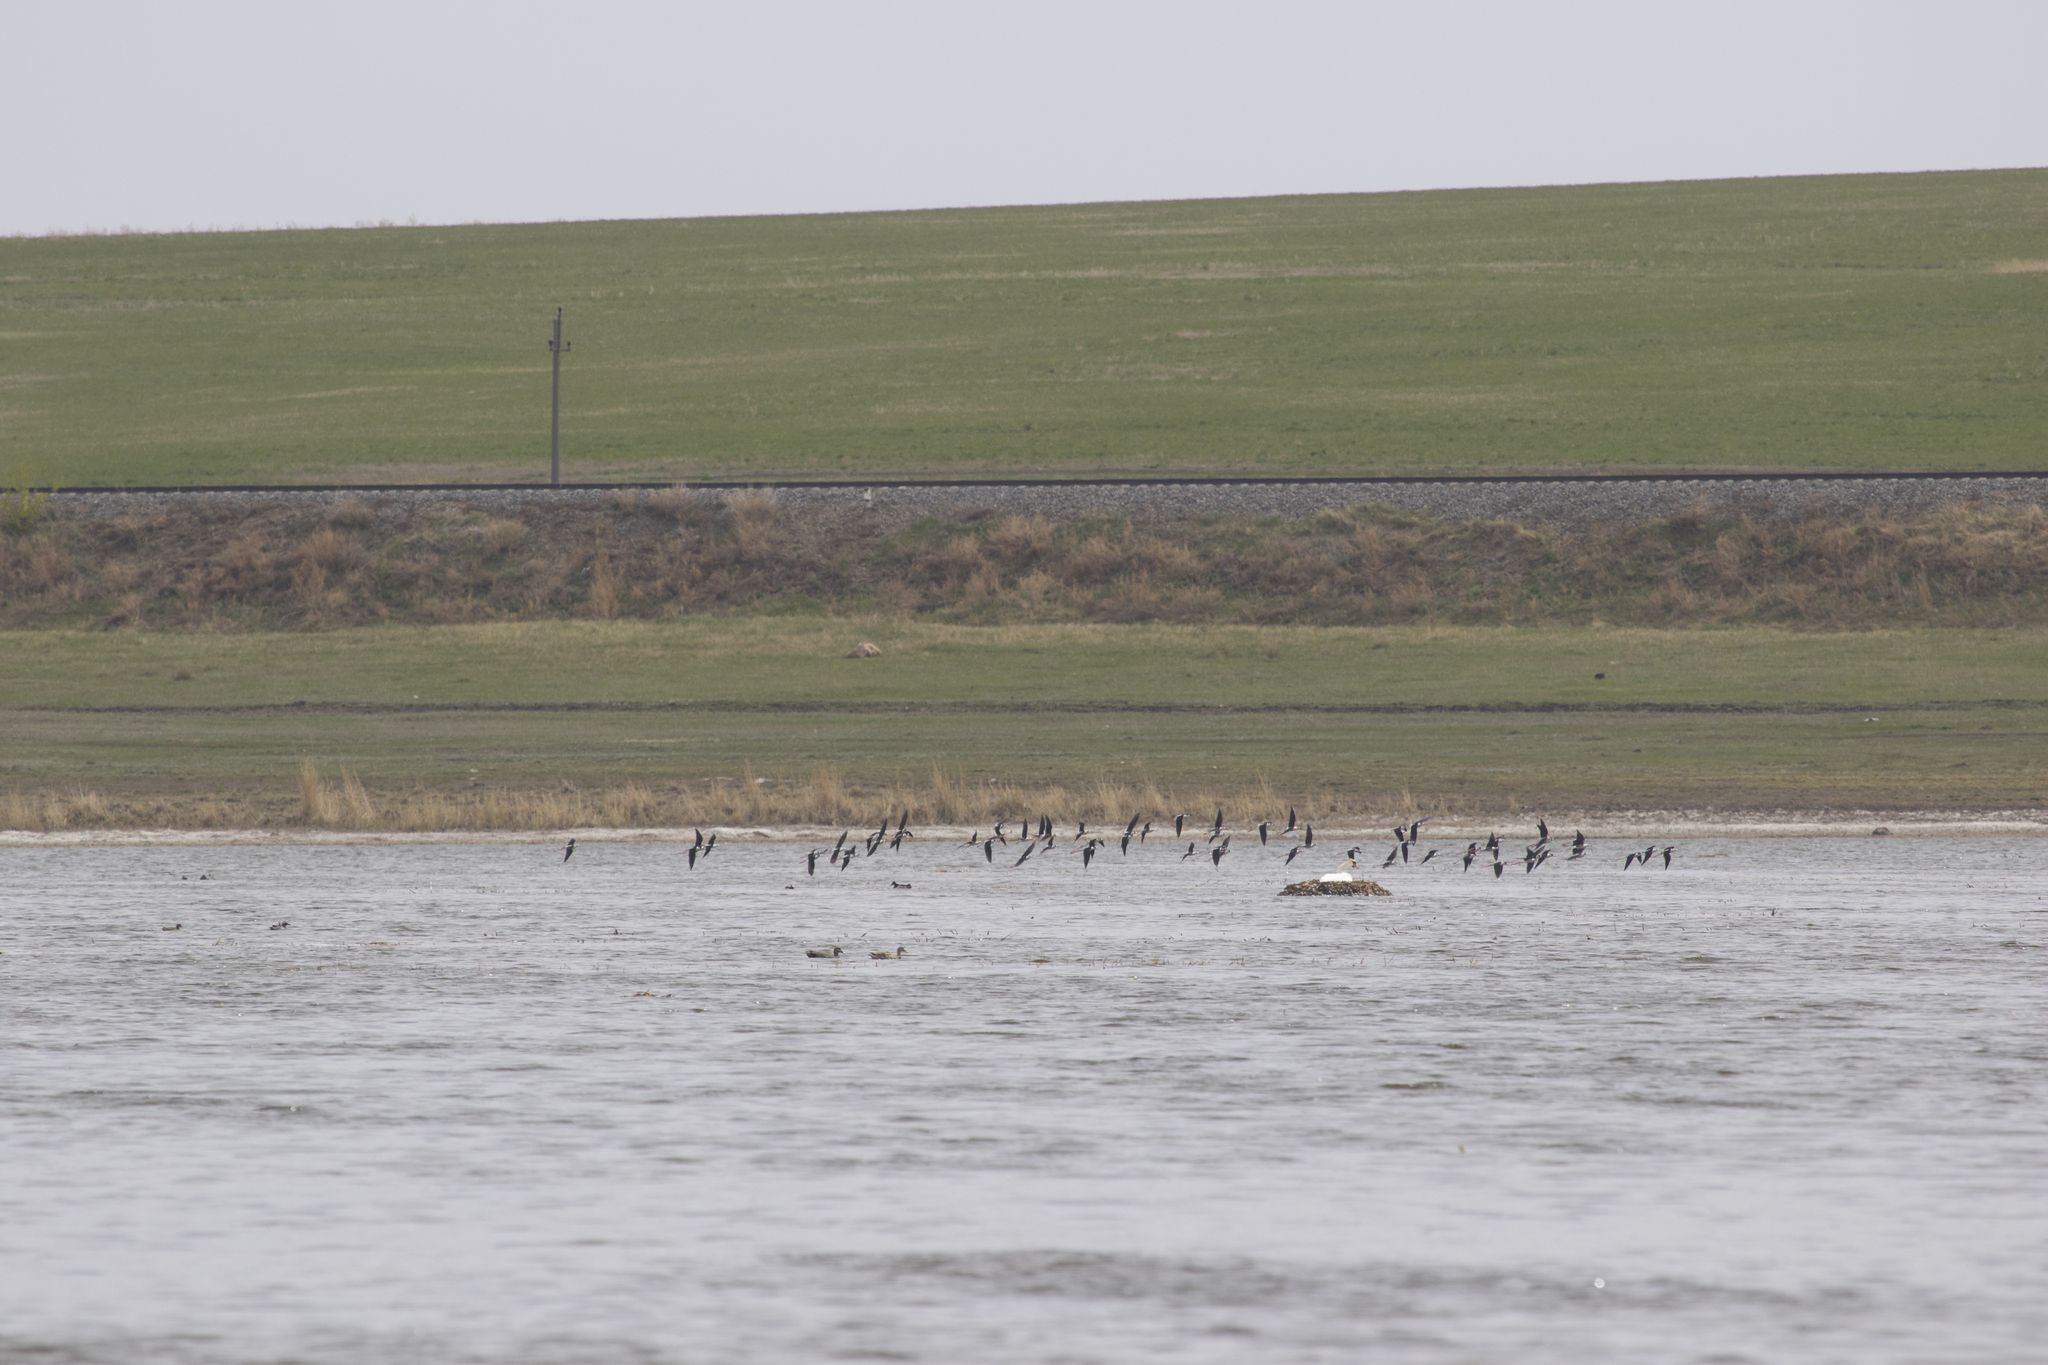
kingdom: Animalia
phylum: Chordata
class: Aves
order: Charadriiformes
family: Recurvirostridae
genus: Himantopus
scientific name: Himantopus himantopus
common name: Black-winged stilt
